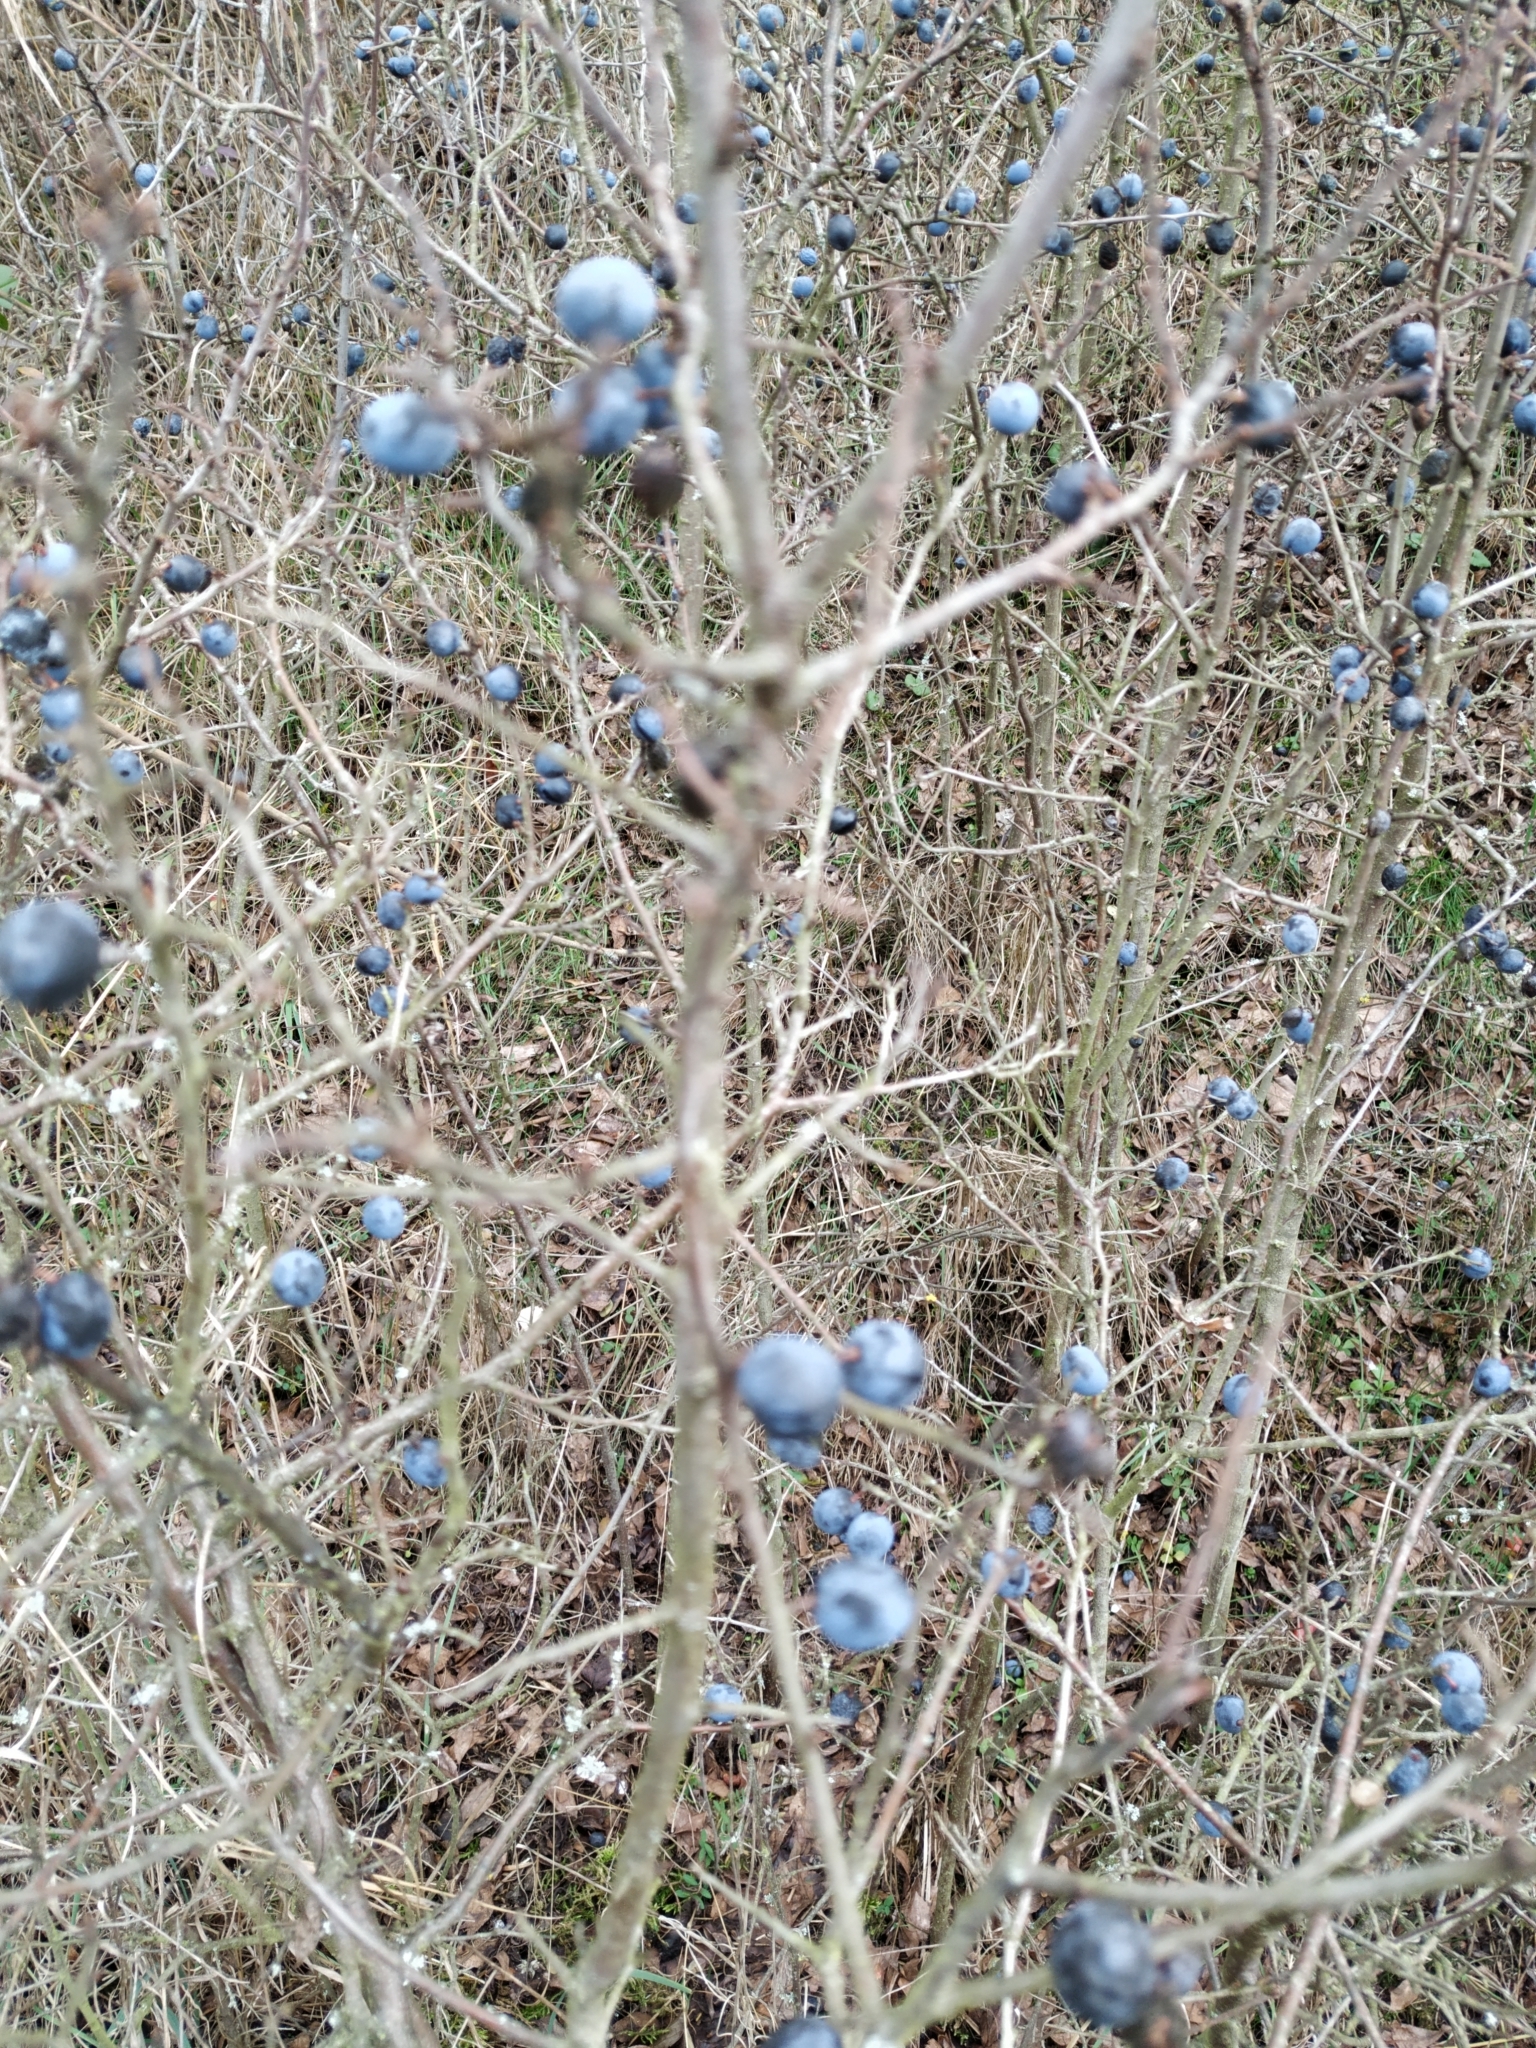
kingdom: Plantae
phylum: Tracheophyta
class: Magnoliopsida
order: Rosales
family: Rosaceae
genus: Prunus
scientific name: Prunus spinosa
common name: Blackthorn
